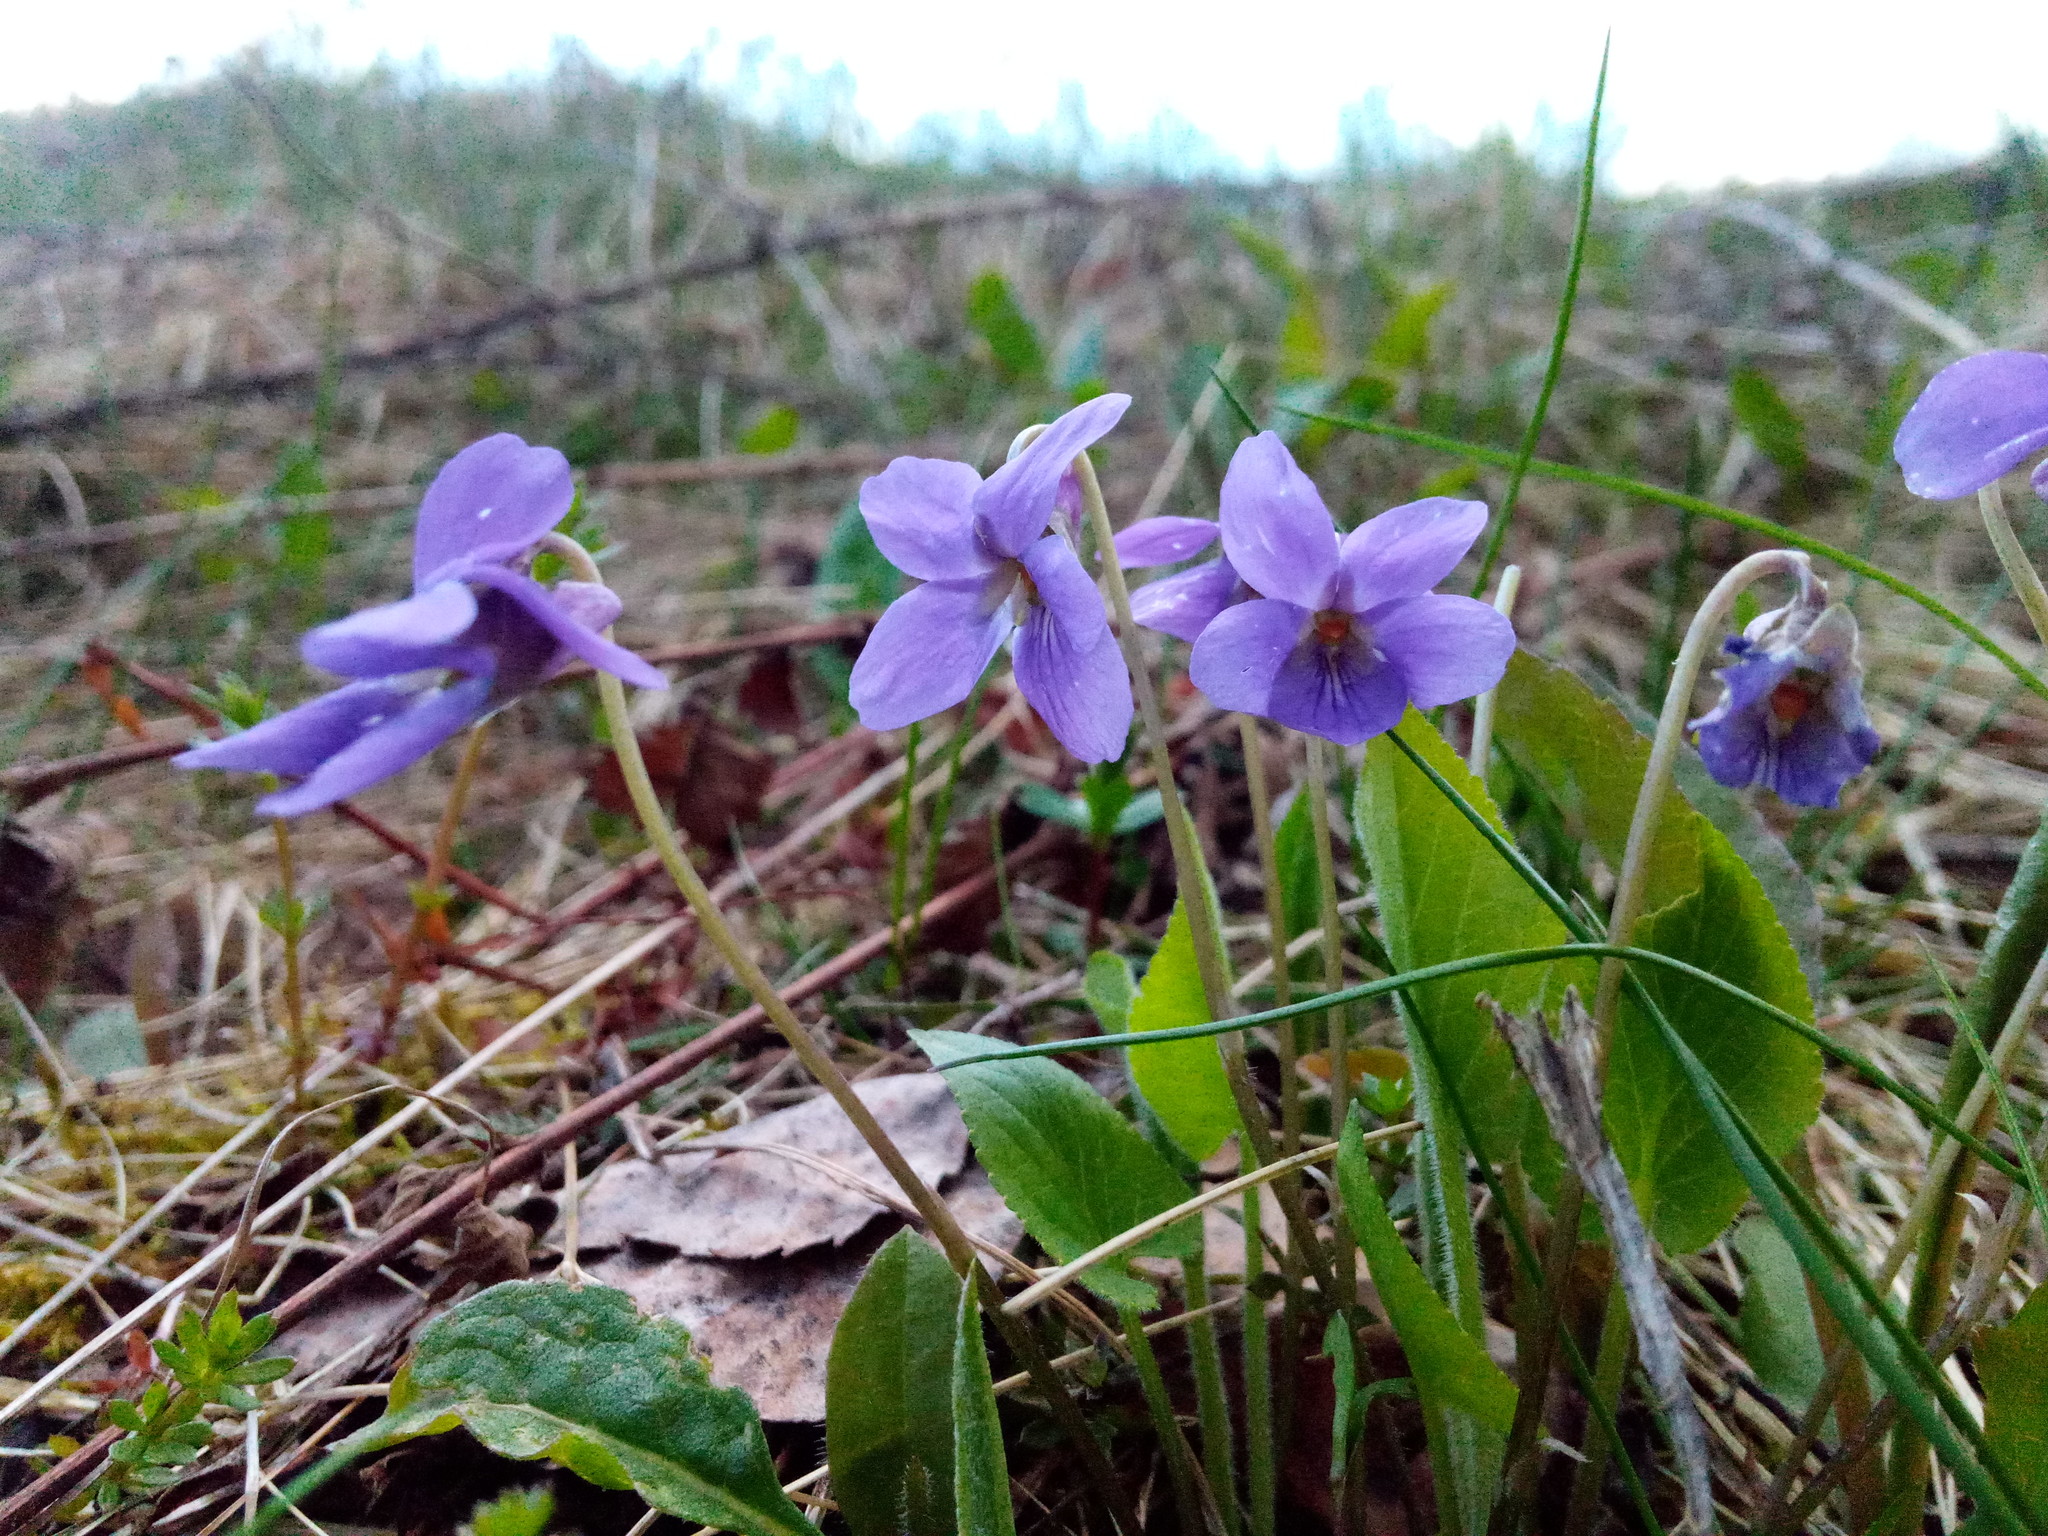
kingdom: Plantae
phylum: Tracheophyta
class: Magnoliopsida
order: Malpighiales
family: Violaceae
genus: Viola
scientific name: Viola hirta
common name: Hairy violet
